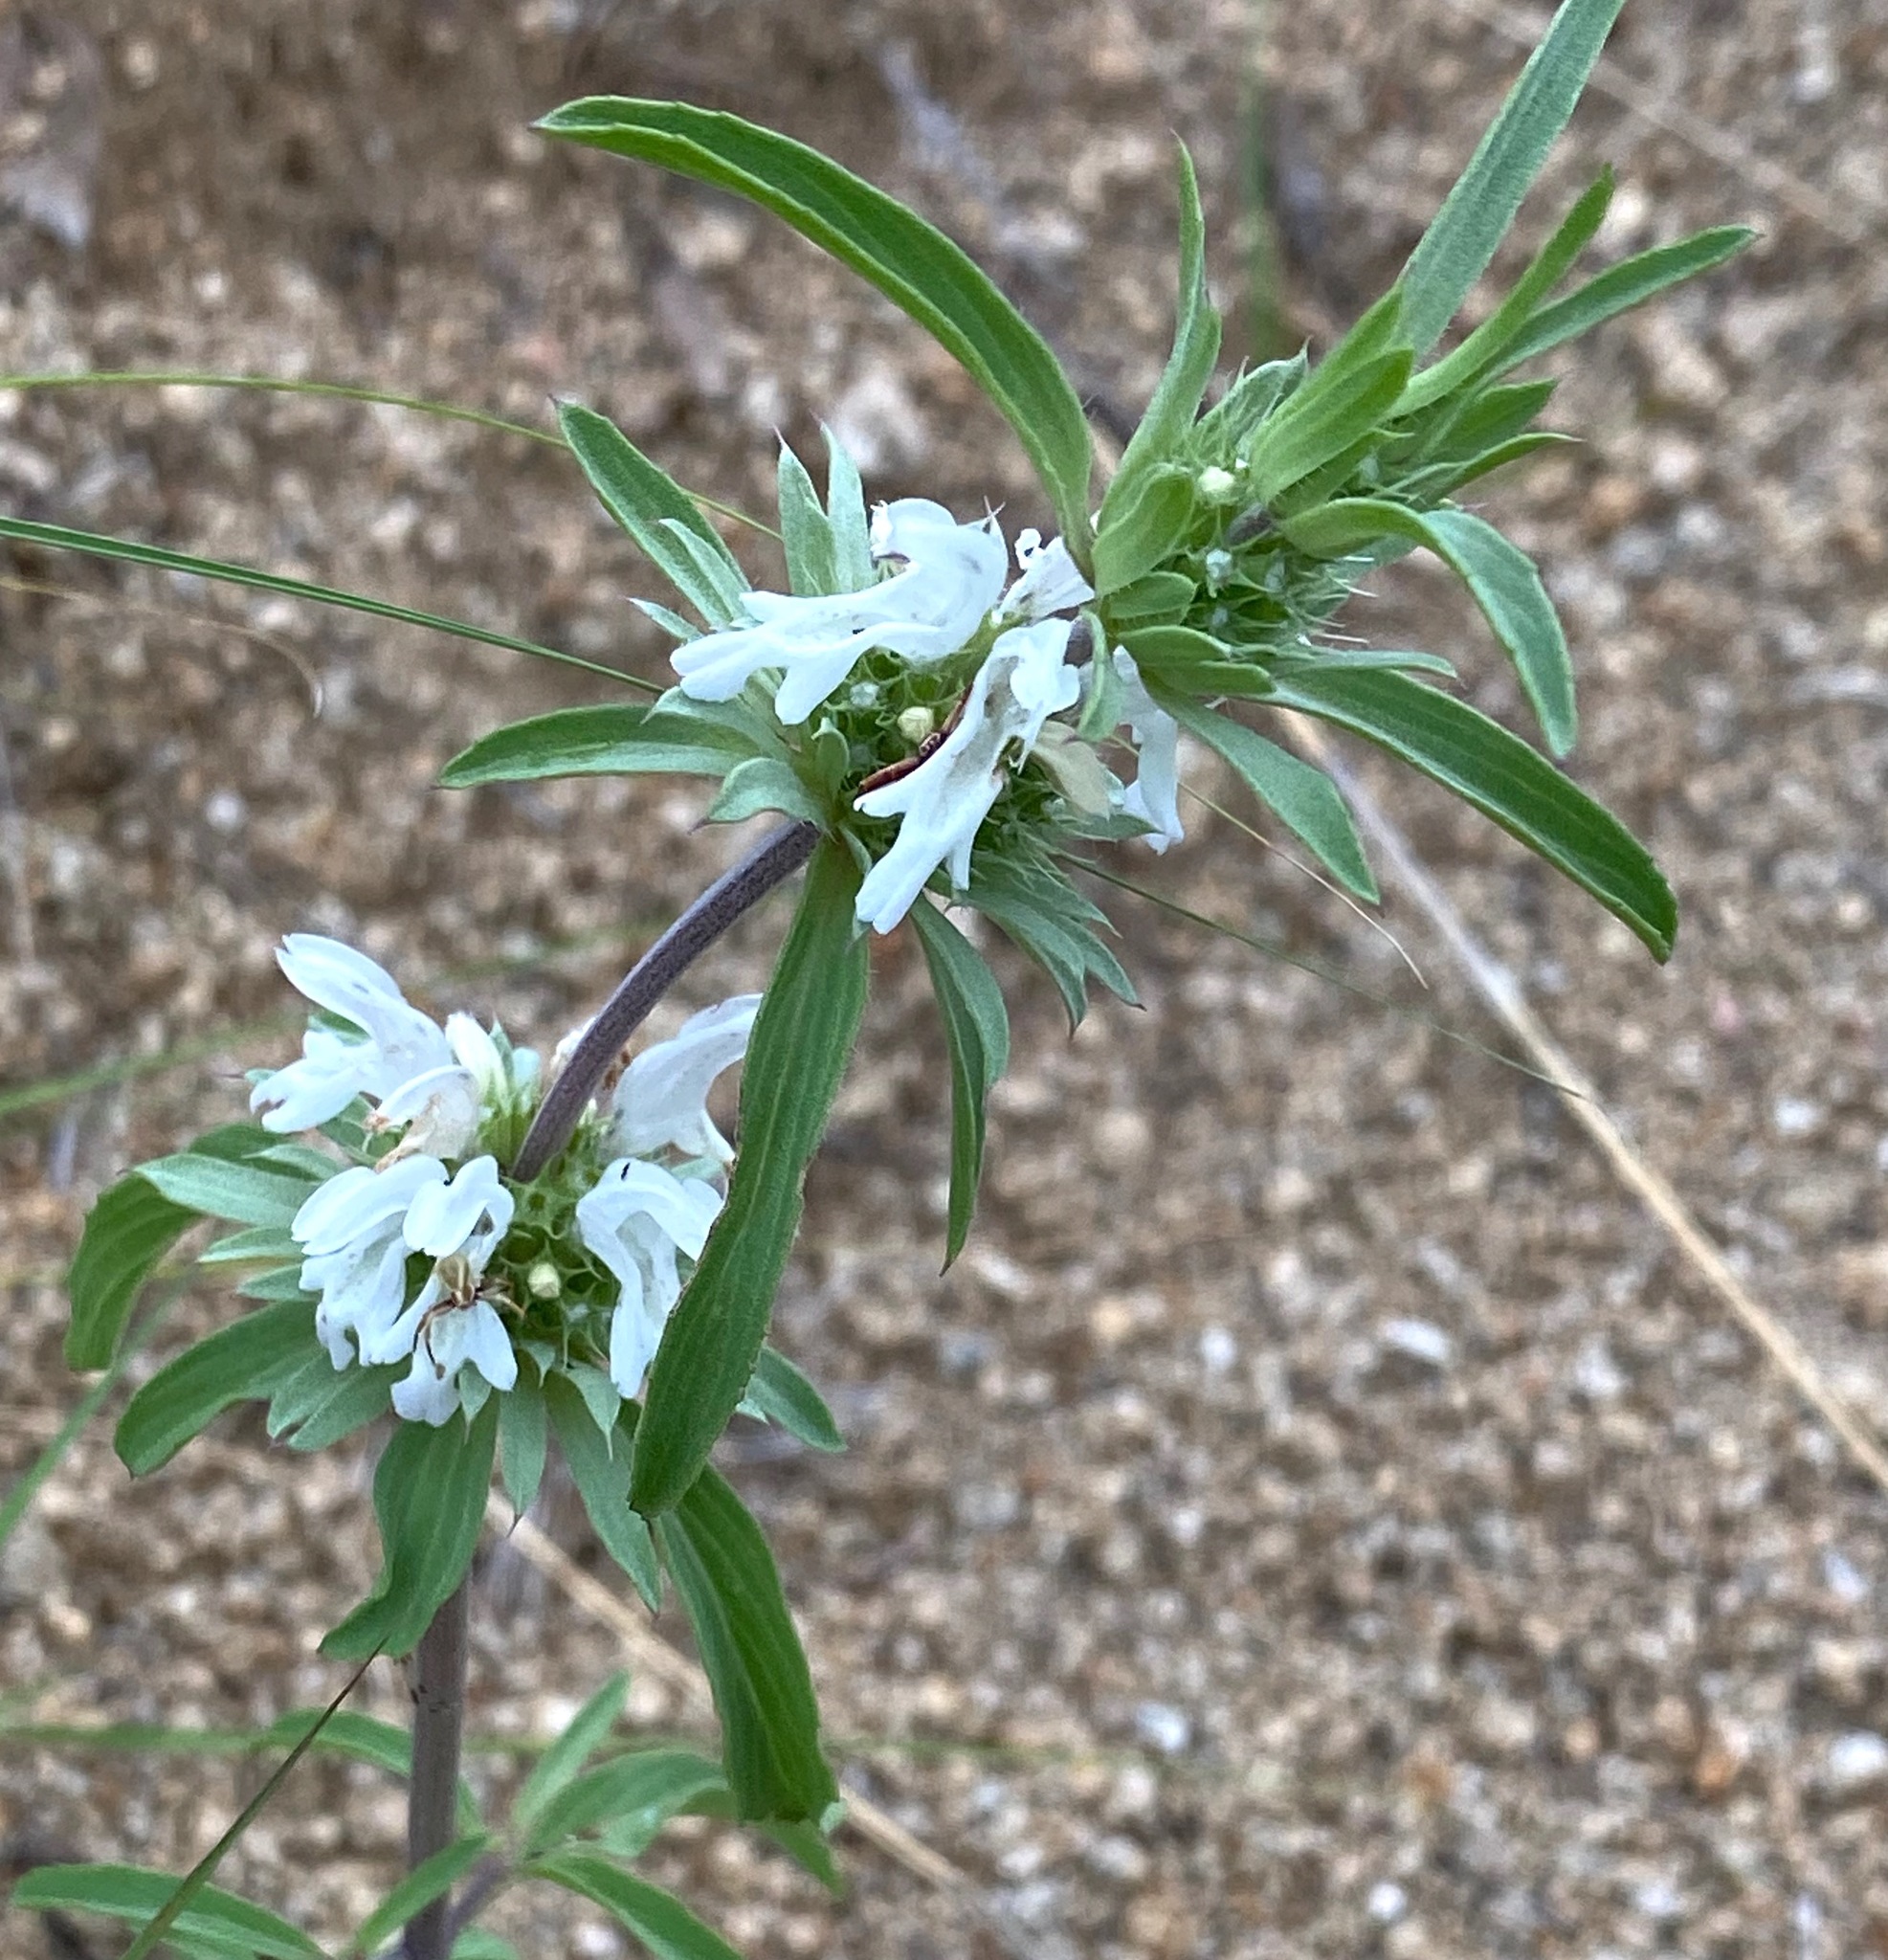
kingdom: Plantae
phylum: Tracheophyta
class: Magnoliopsida
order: Lamiales
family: Lamiaceae
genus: Monarda
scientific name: Monarda citriodora
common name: Lemon beebalm
